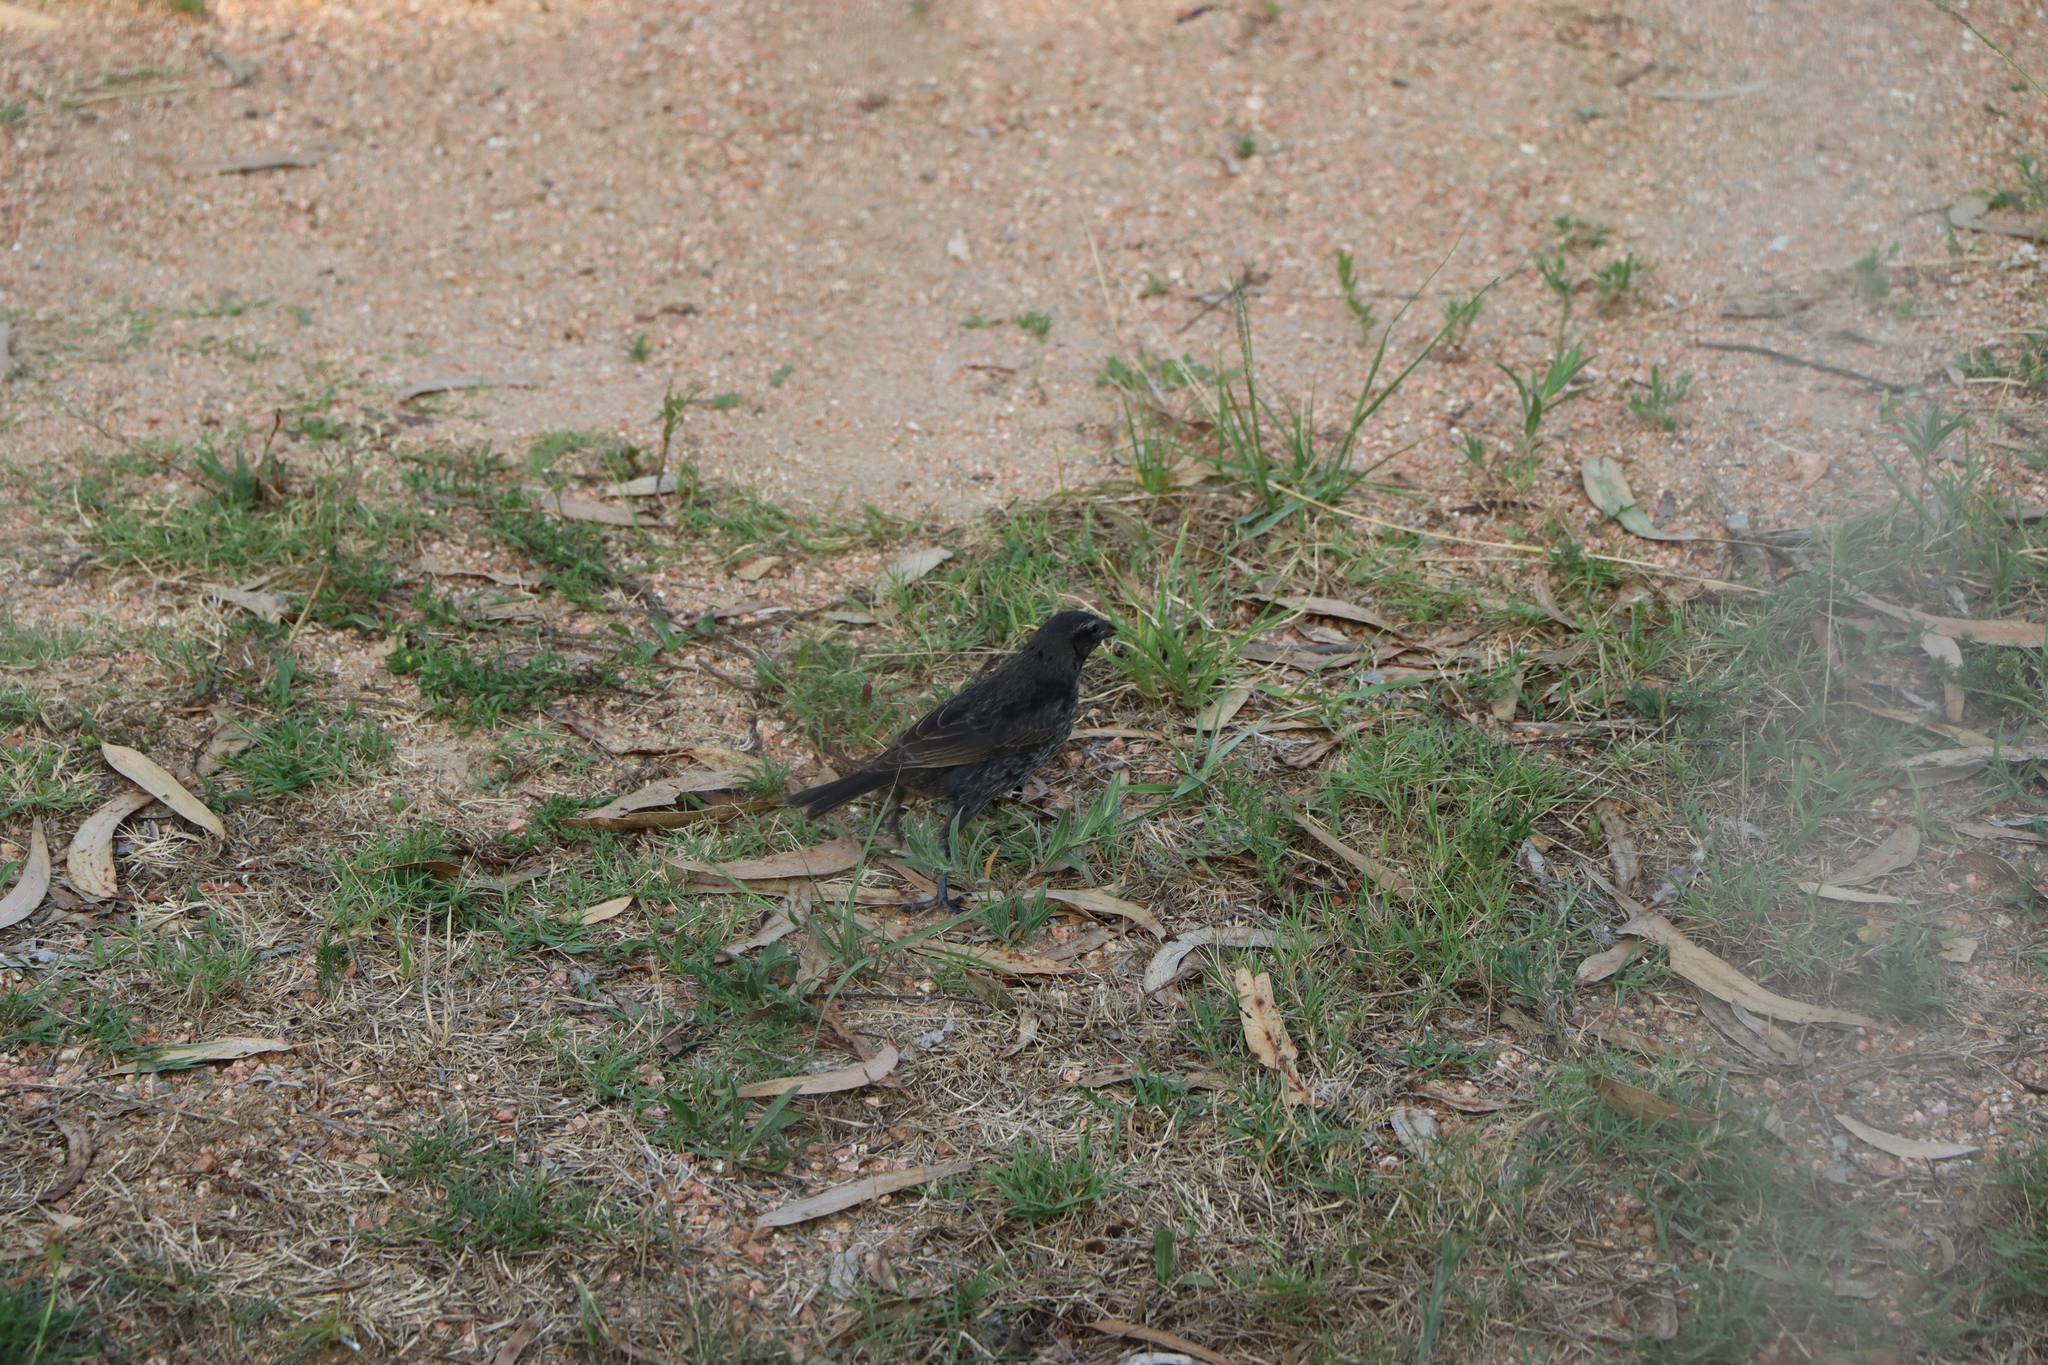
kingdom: Animalia
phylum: Chordata
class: Aves
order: Passeriformes
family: Icteridae
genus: Molothrus
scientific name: Molothrus bonariensis
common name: Shiny cowbird
